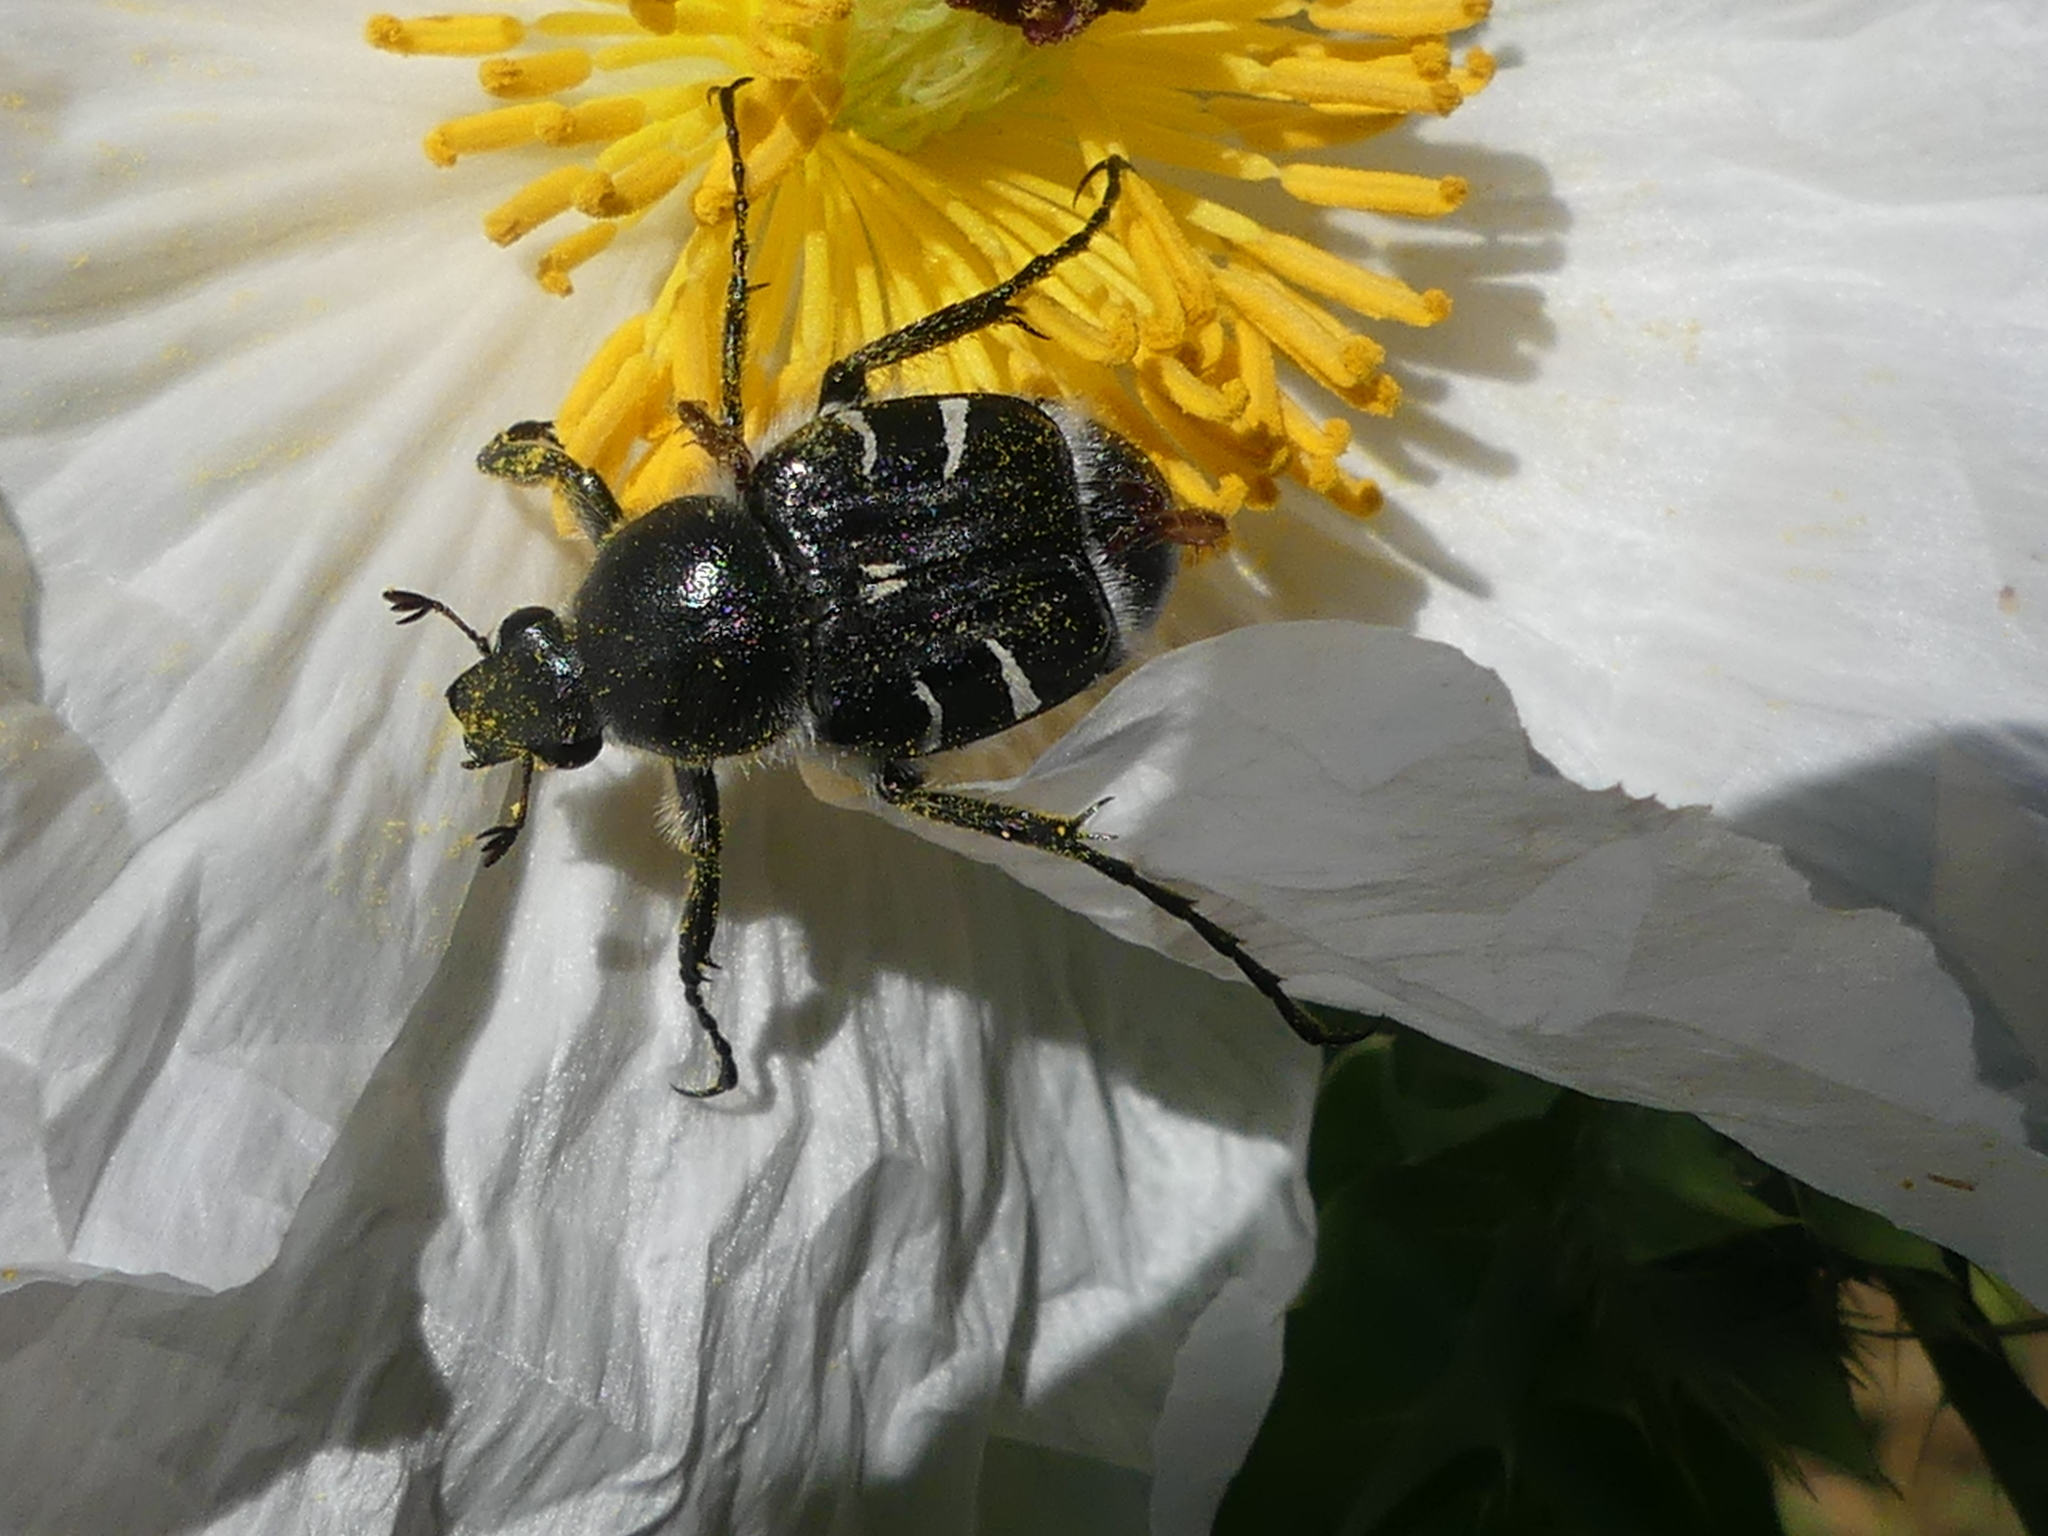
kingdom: Animalia
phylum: Arthropoda
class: Insecta
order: Coleoptera
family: Scarabaeidae
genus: Trichiotinus
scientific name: Trichiotinus texanus
